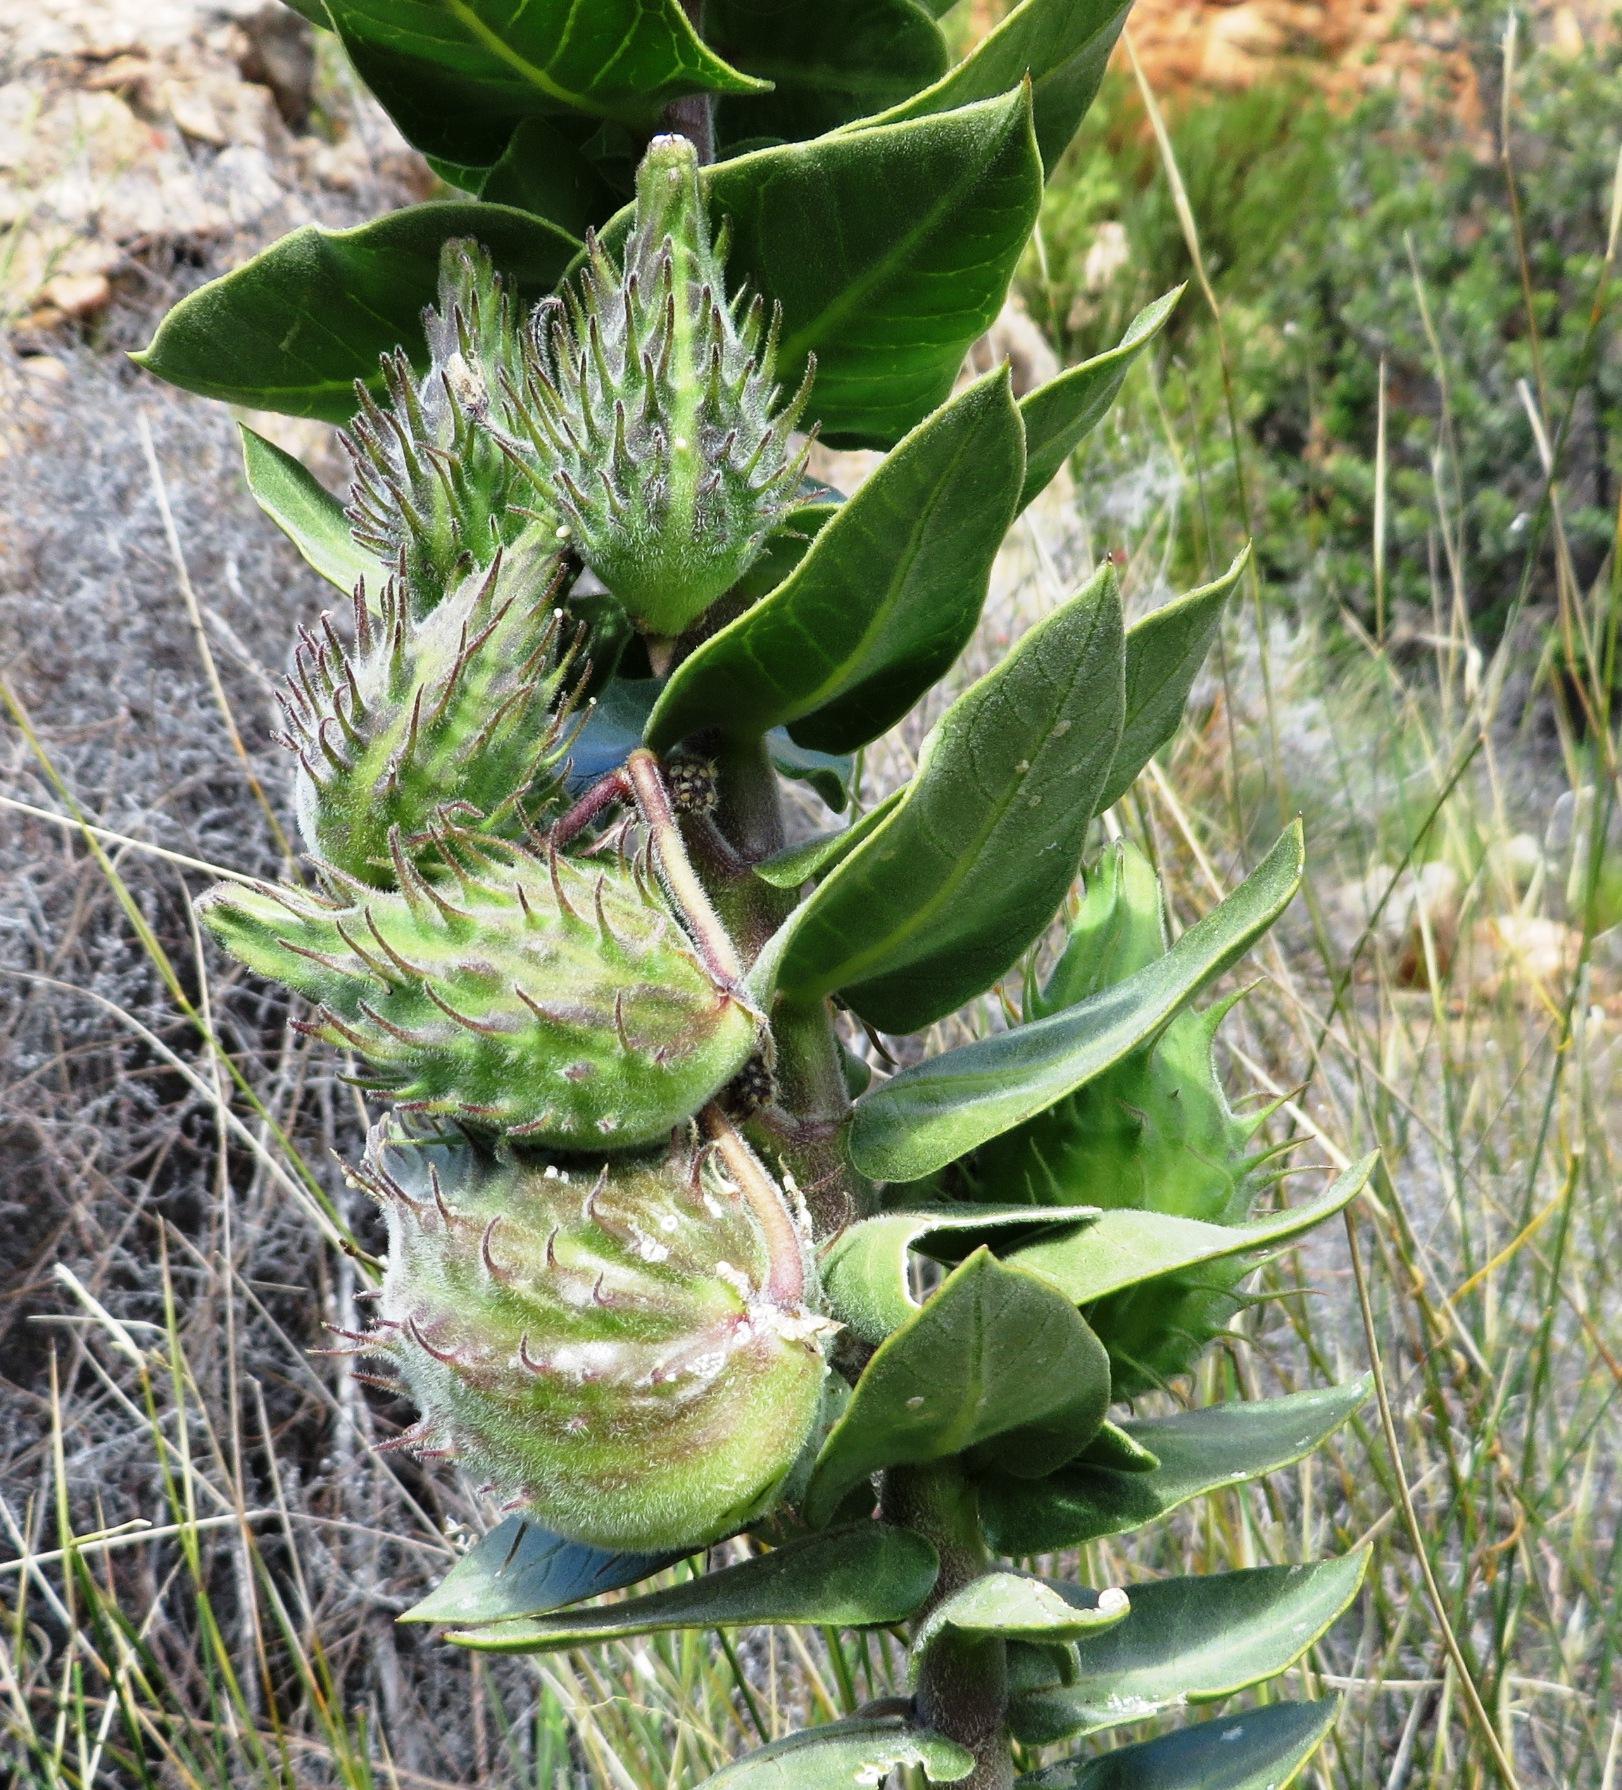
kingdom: Plantae
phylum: Tracheophyta
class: Magnoliopsida
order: Gentianales
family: Apocynaceae
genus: Gomphocarpus
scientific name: Gomphocarpus cancellatus
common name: Wild cotton
